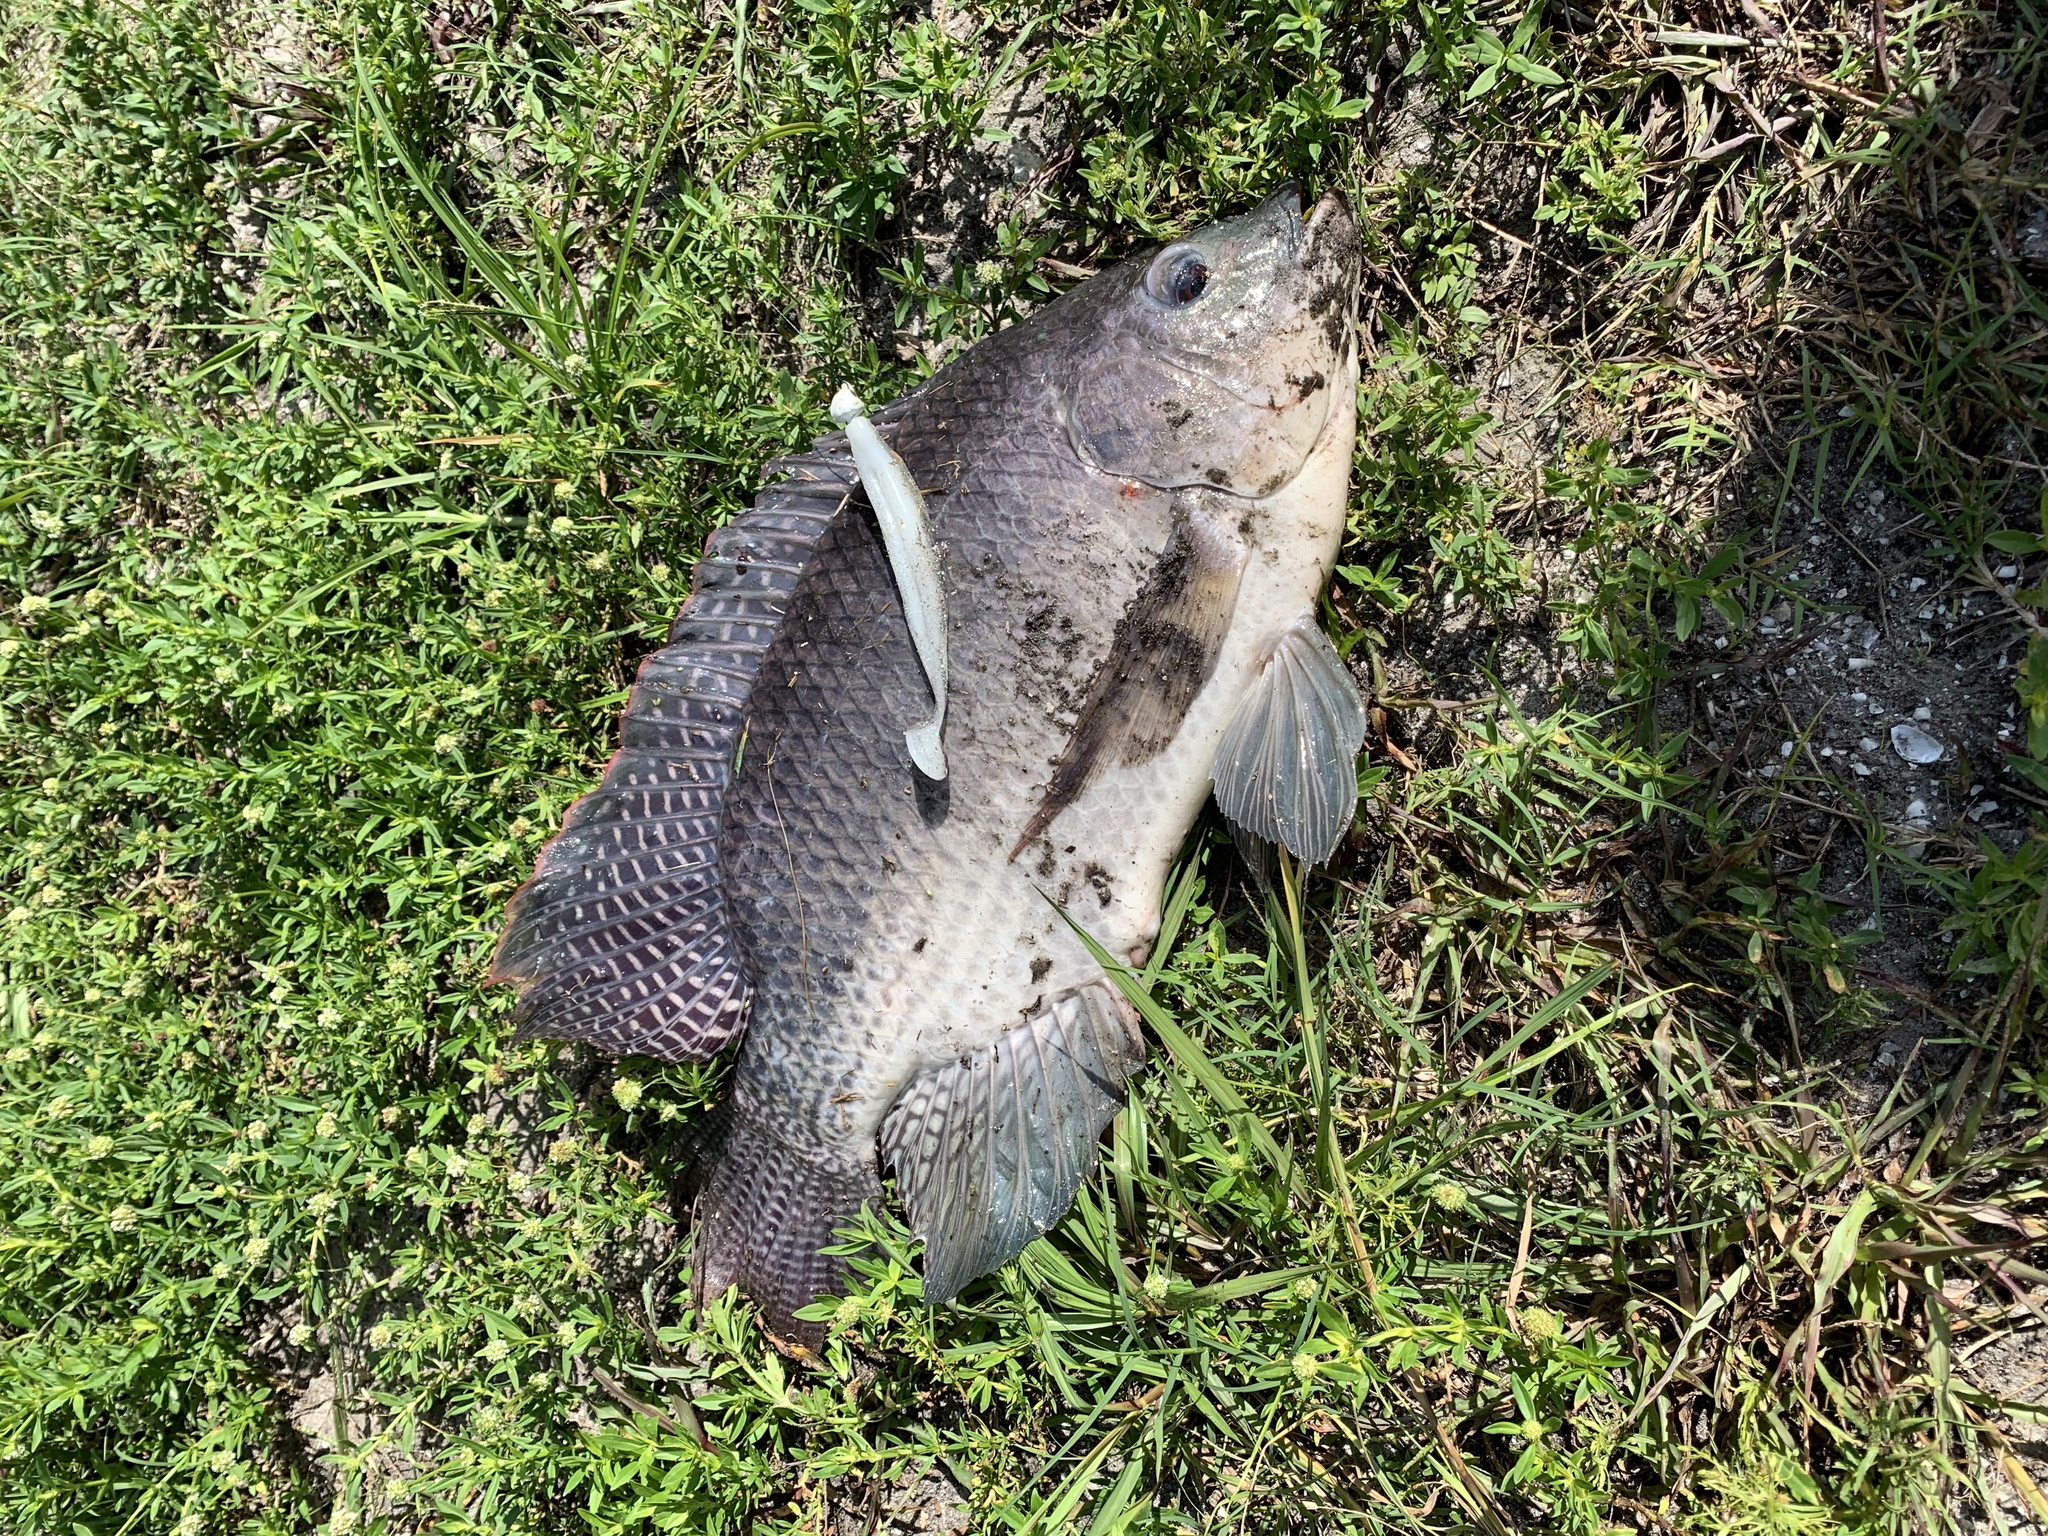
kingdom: Animalia
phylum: Chordata
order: Perciformes
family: Cichlidae
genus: Oreochromis
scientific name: Oreochromis aureus
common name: Blue tilapia
